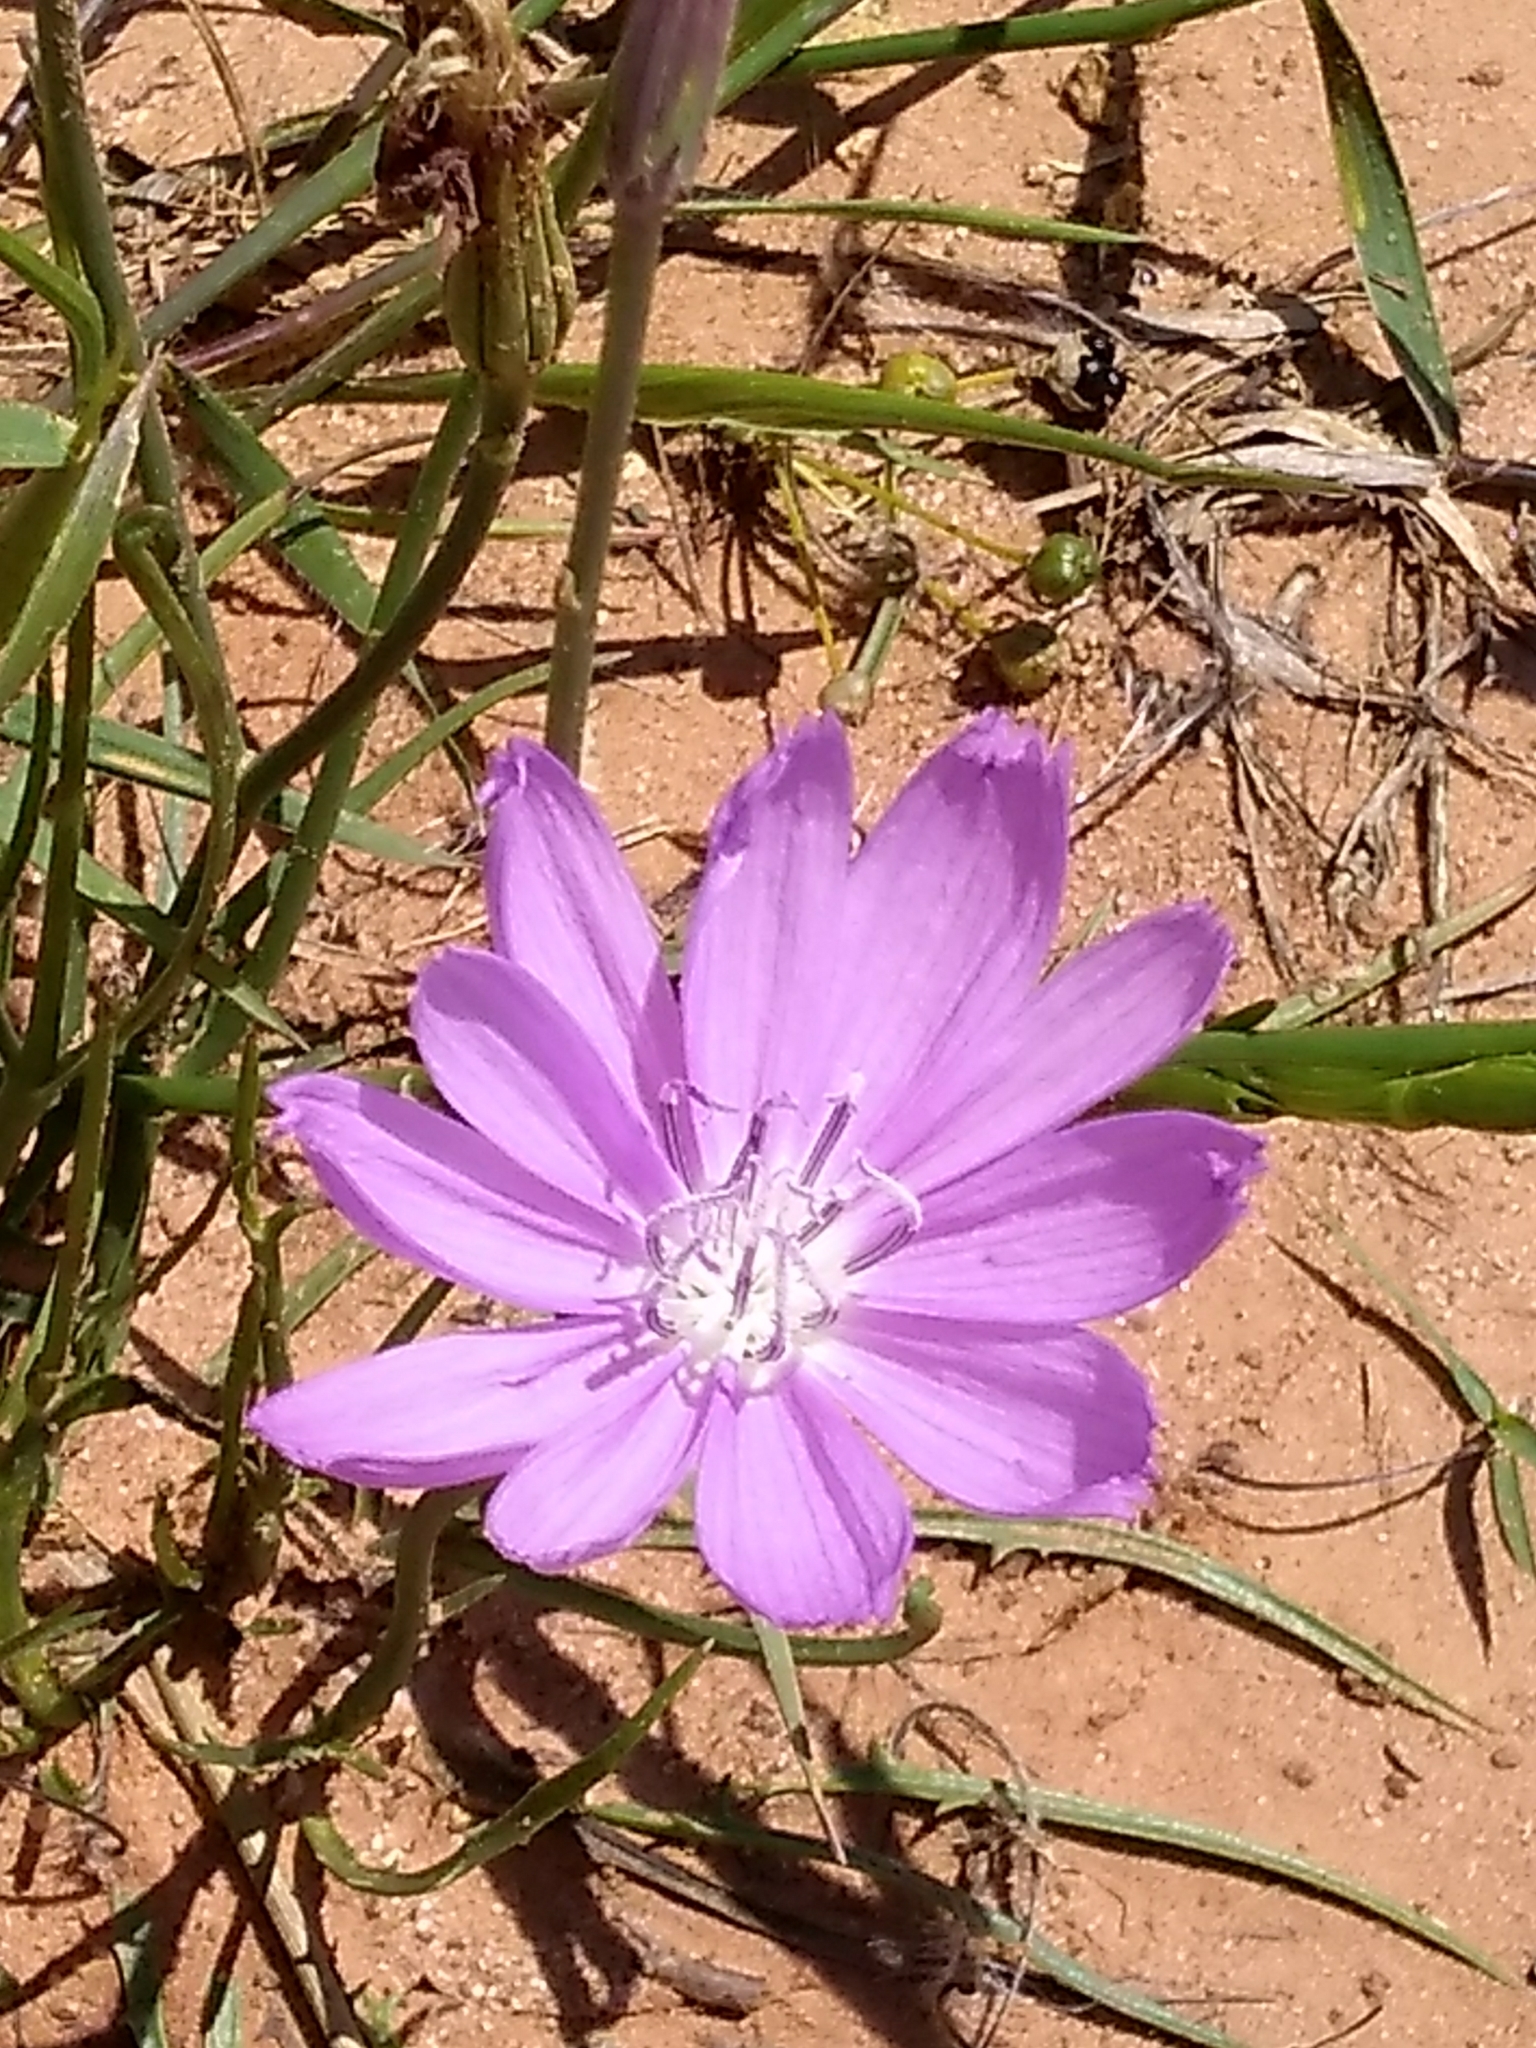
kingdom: Plantae
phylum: Tracheophyta
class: Magnoliopsida
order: Asterales
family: Asteraceae
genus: Lygodesmia
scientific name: Lygodesmia texana
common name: Texas skeleton-plant
